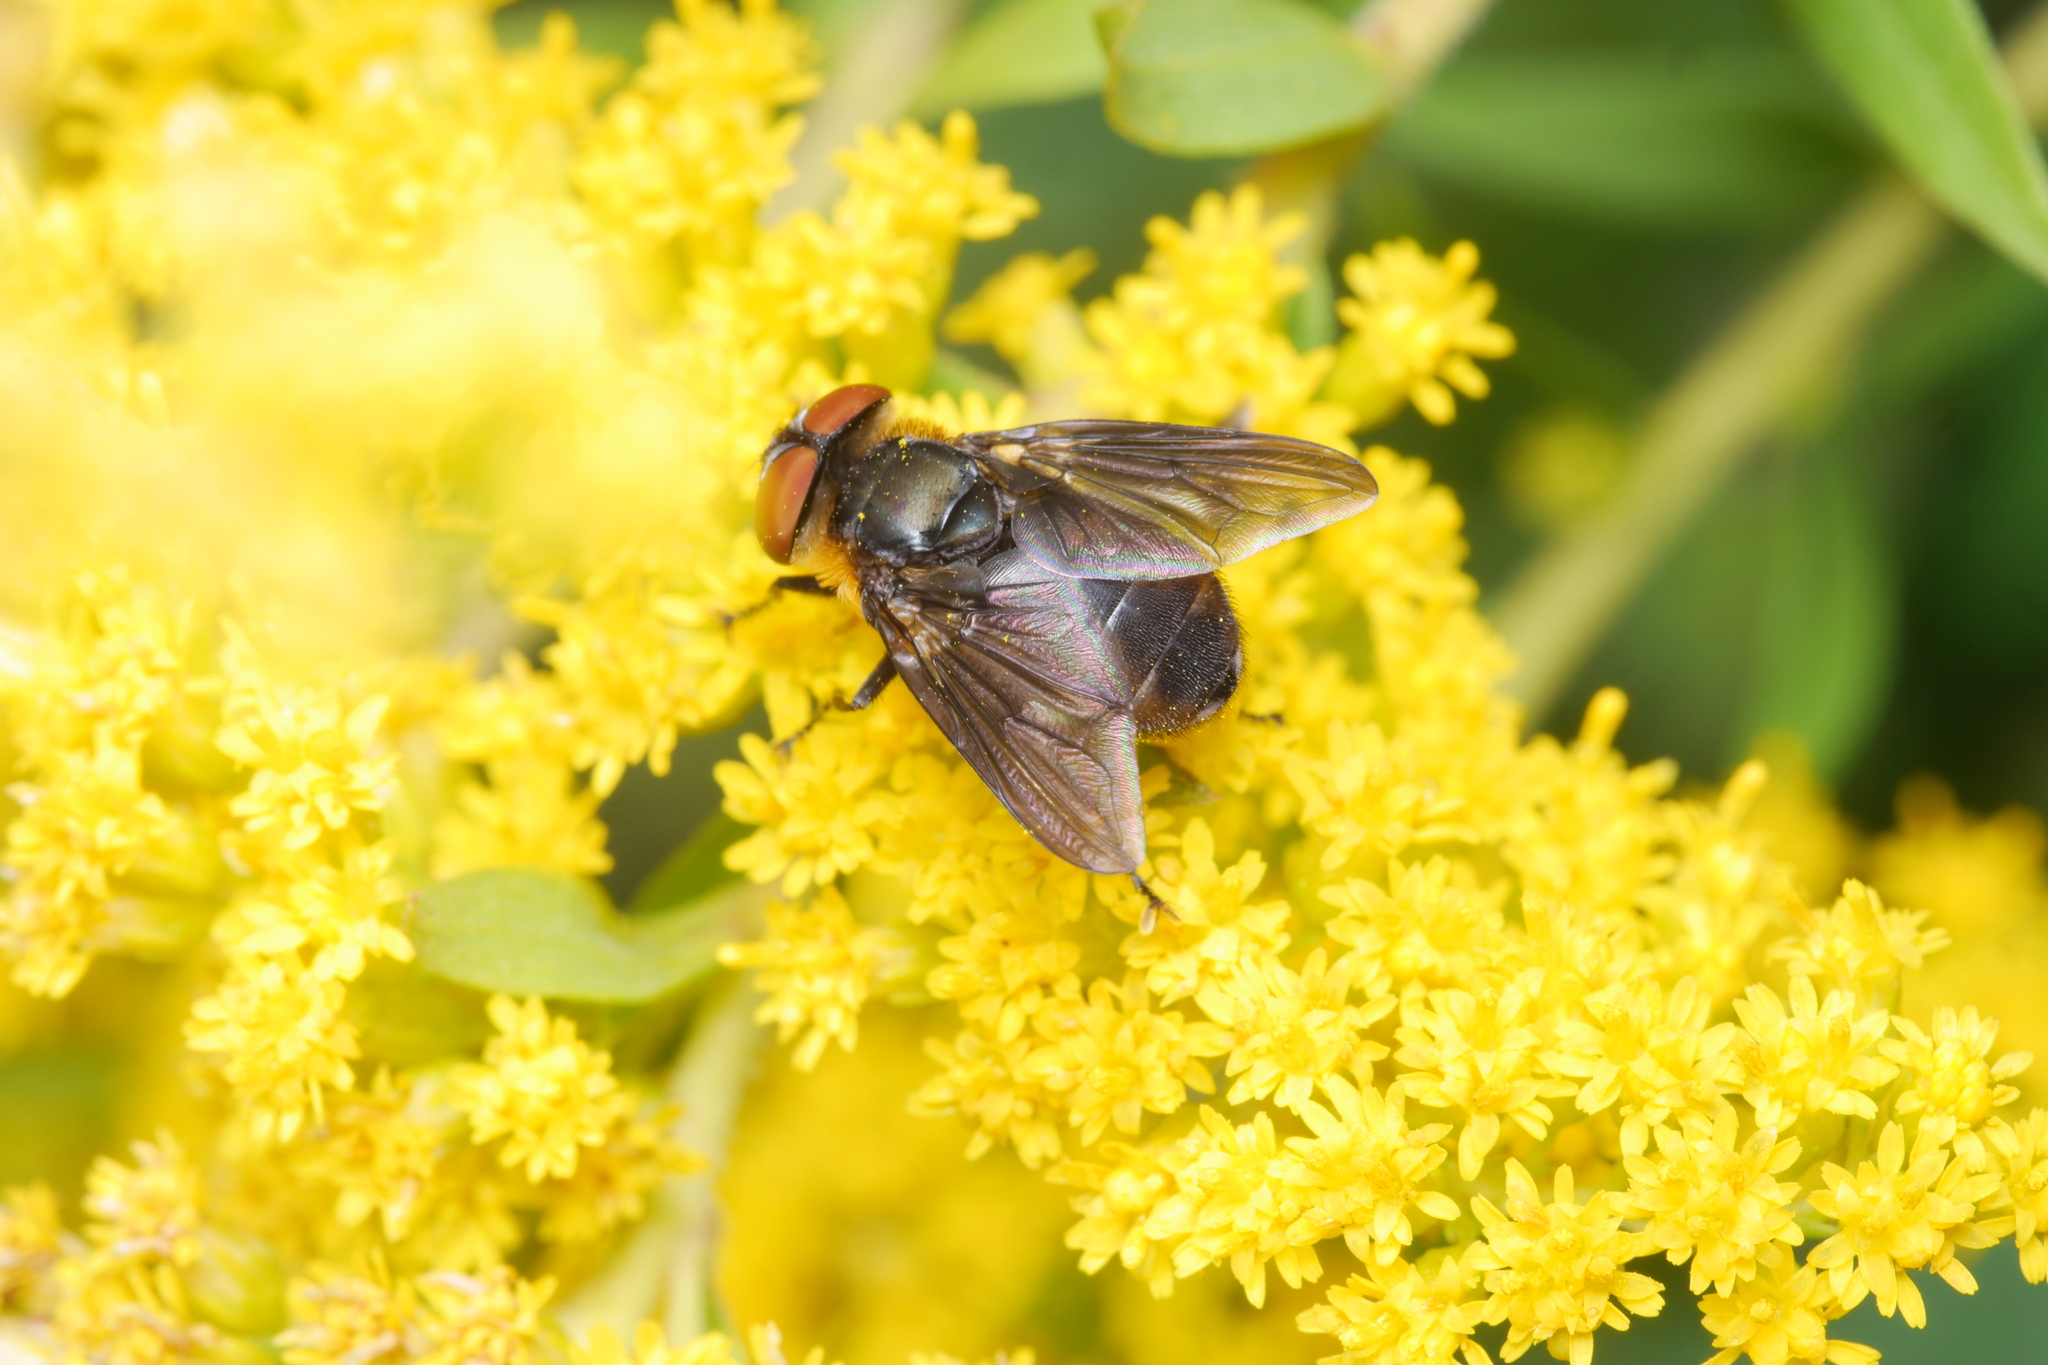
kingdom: Animalia
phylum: Arthropoda
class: Insecta
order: Diptera
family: Tachinidae
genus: Phasia
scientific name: Phasia hemiptera
